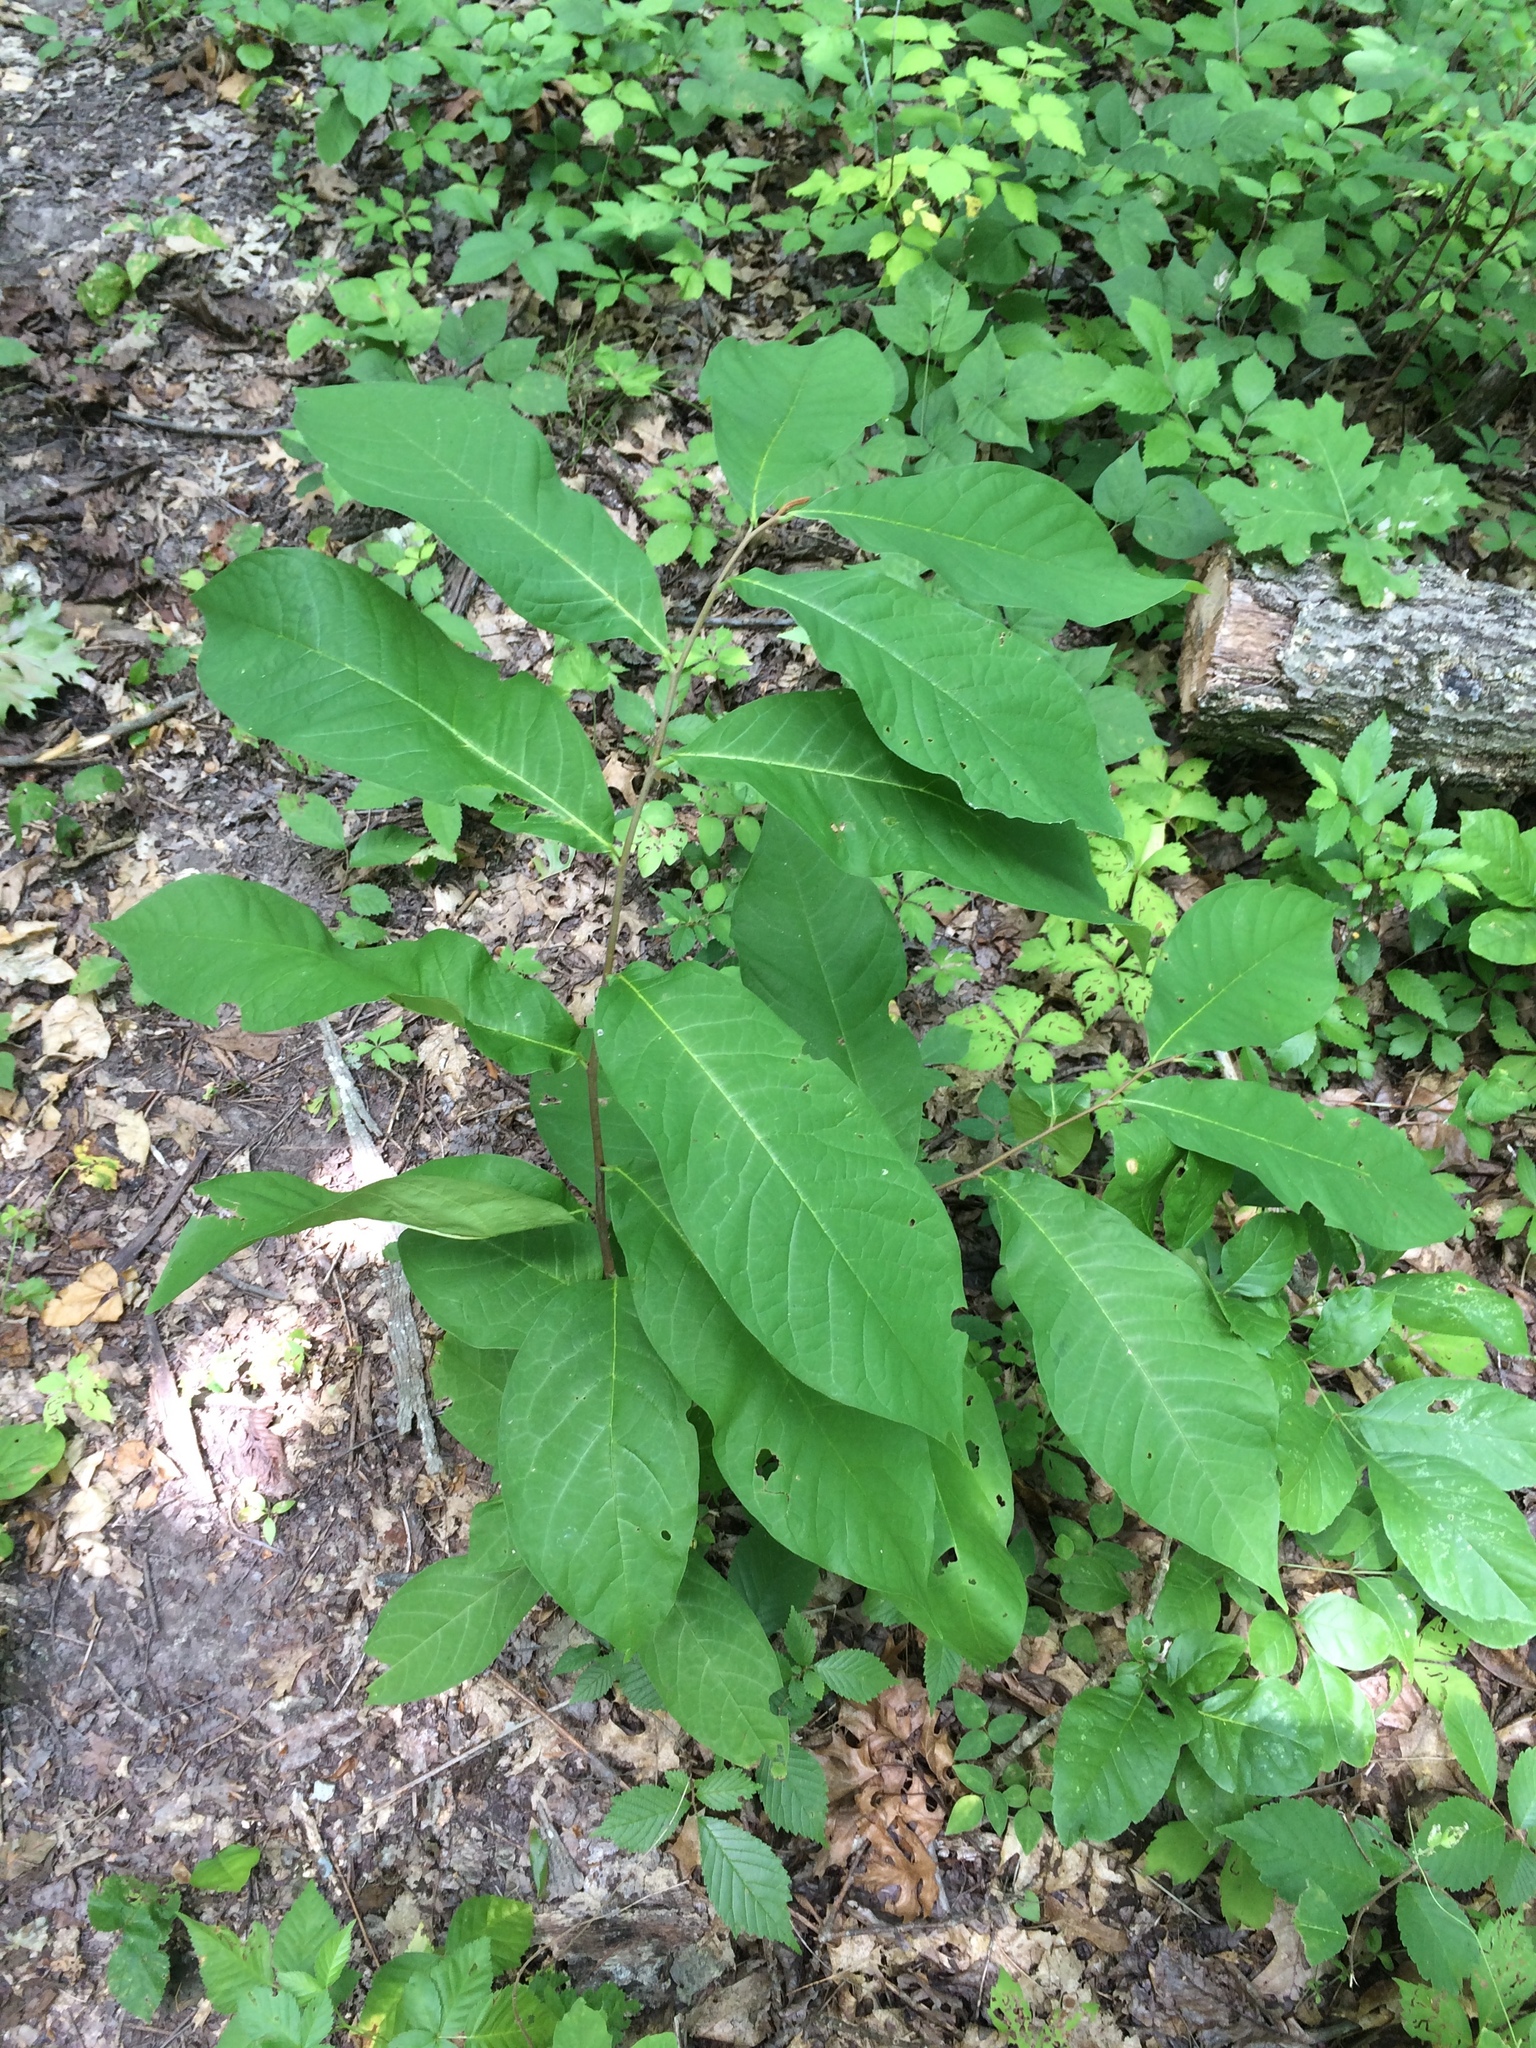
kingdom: Plantae
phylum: Tracheophyta
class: Magnoliopsida
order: Magnoliales
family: Annonaceae
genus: Asimina
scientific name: Asimina triloba
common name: Dog-banana
